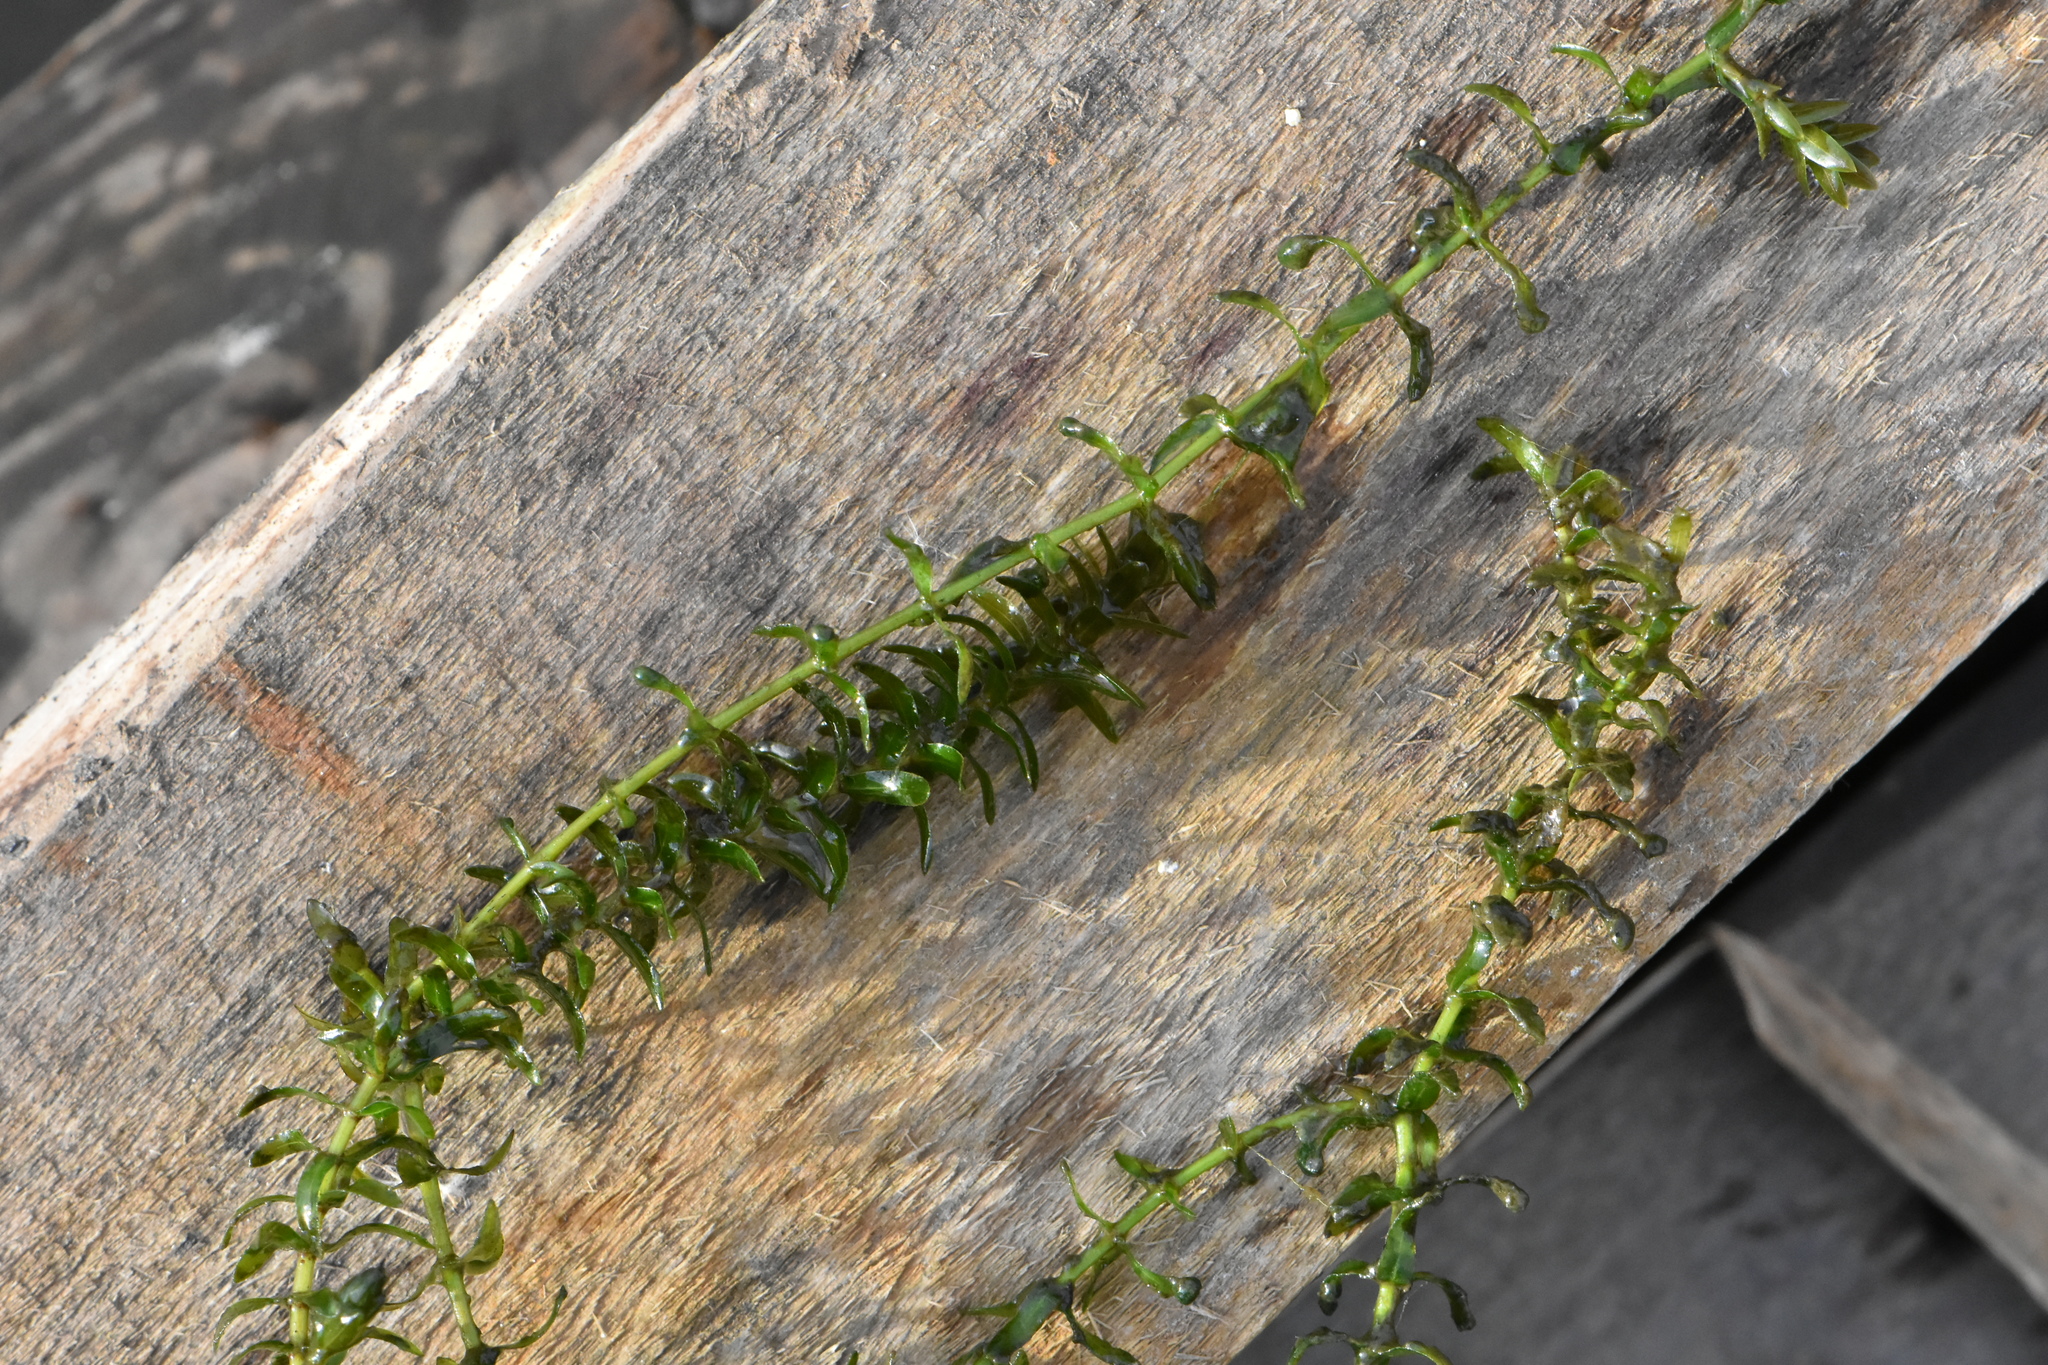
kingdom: Plantae
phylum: Tracheophyta
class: Liliopsida
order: Alismatales
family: Hydrocharitaceae
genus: Elodea
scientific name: Elodea canadensis
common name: Canadian waterweed
